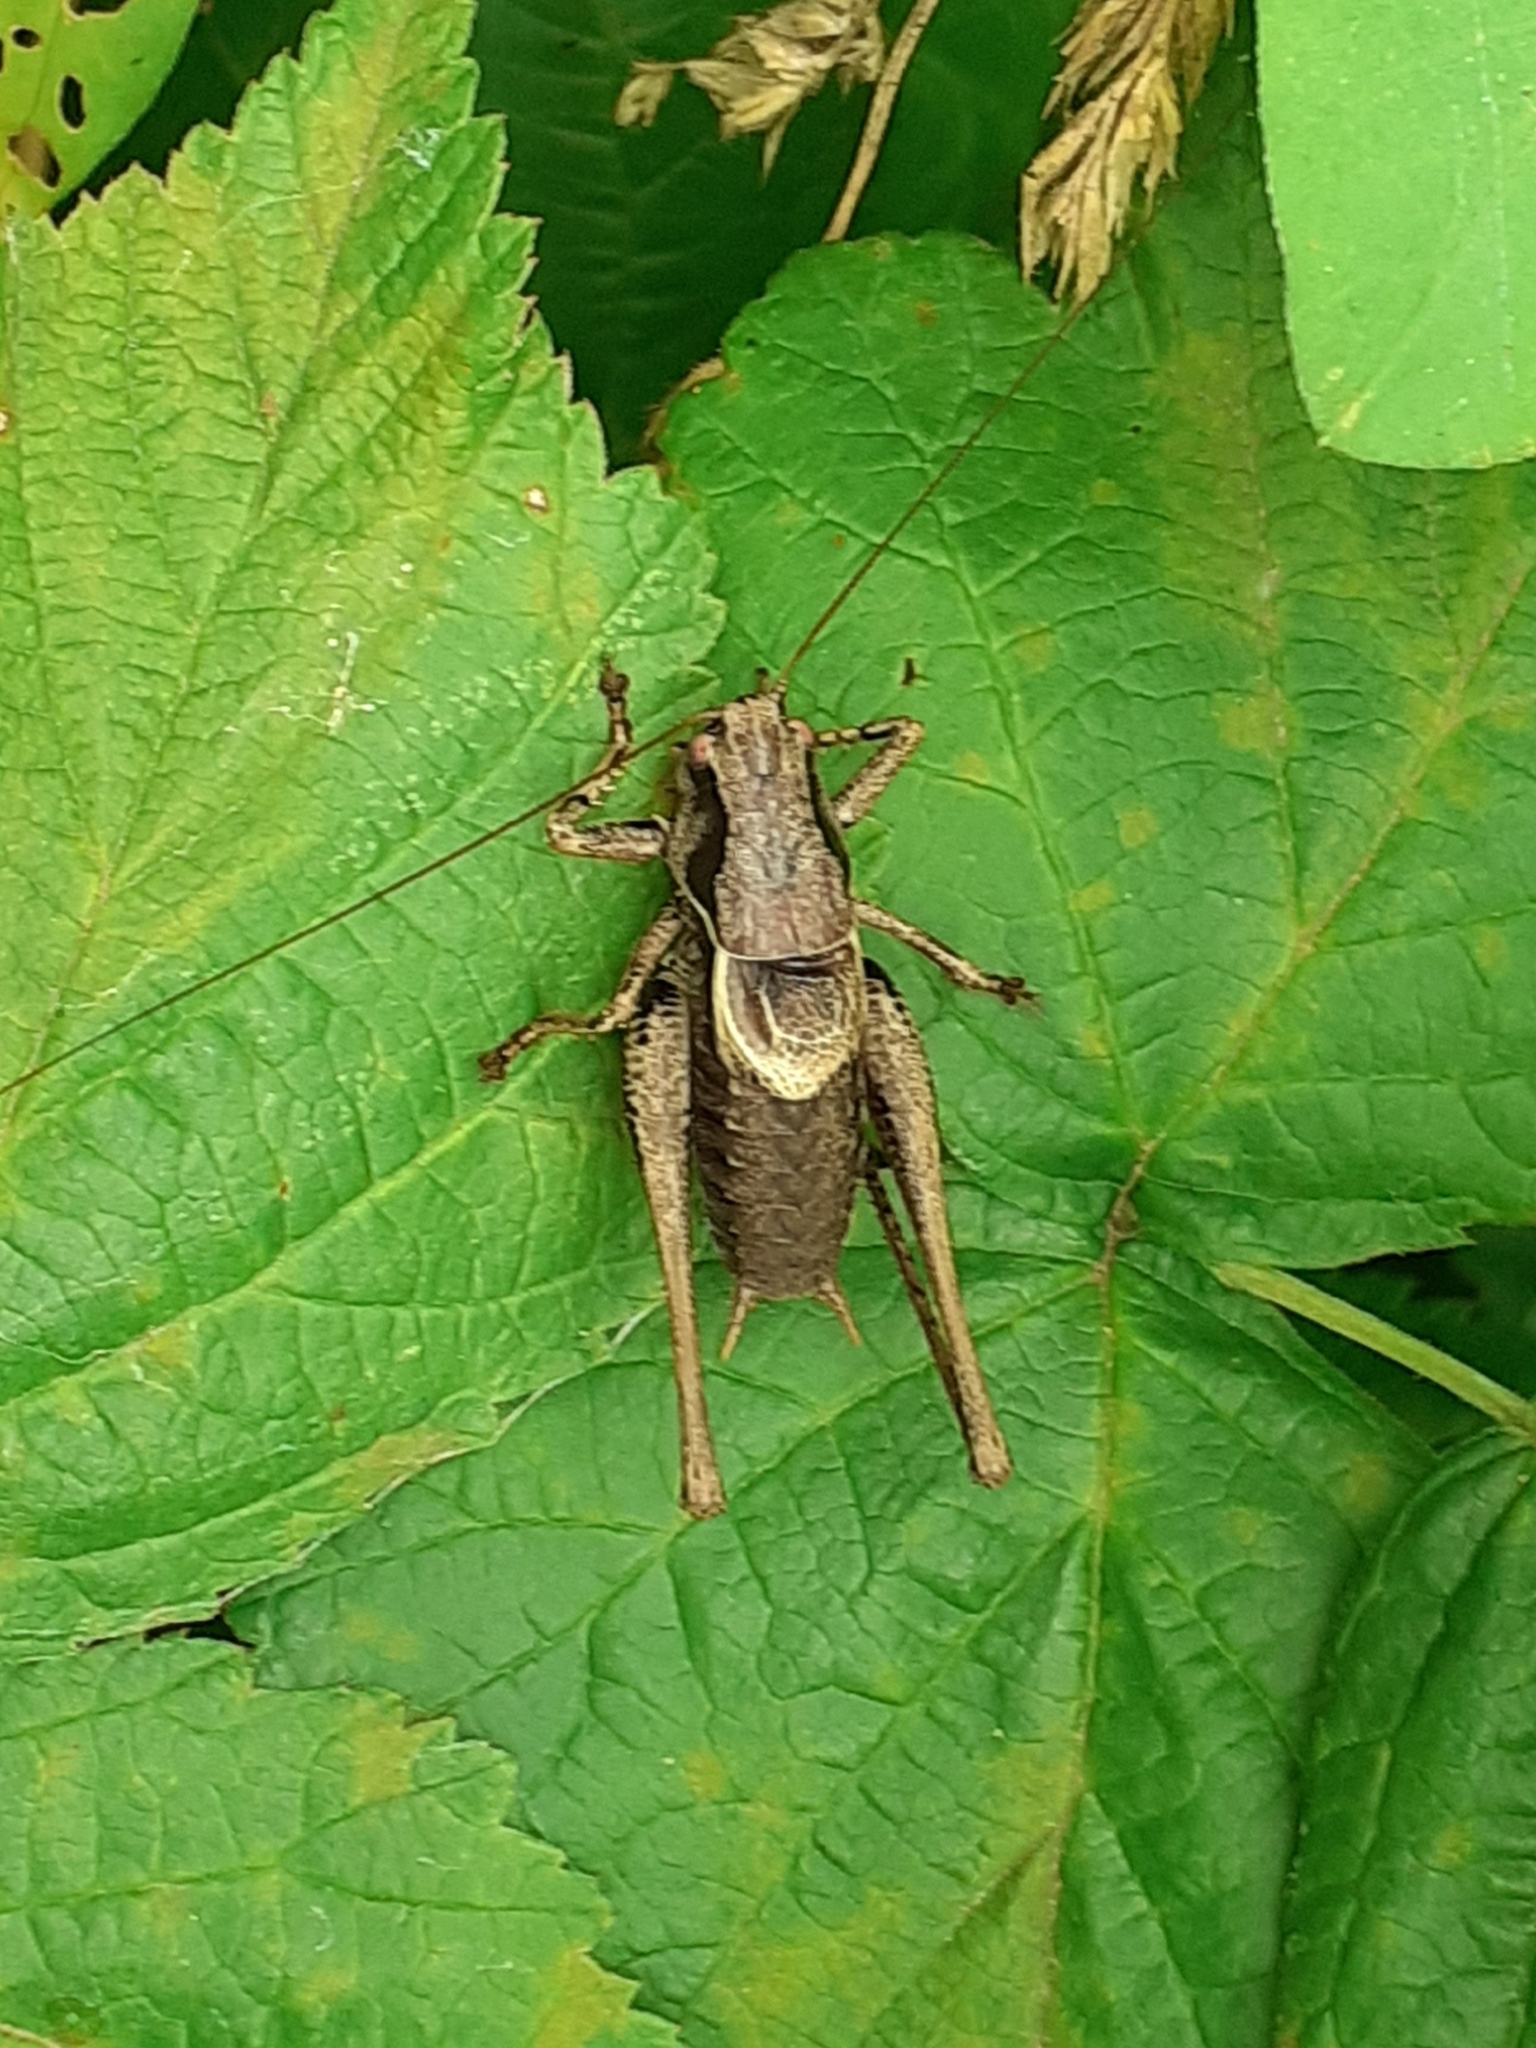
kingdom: Animalia
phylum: Arthropoda
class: Insecta
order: Orthoptera
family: Tettigoniidae
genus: Pholidoptera
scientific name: Pholidoptera griseoaptera
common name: Dark bush-cricket
